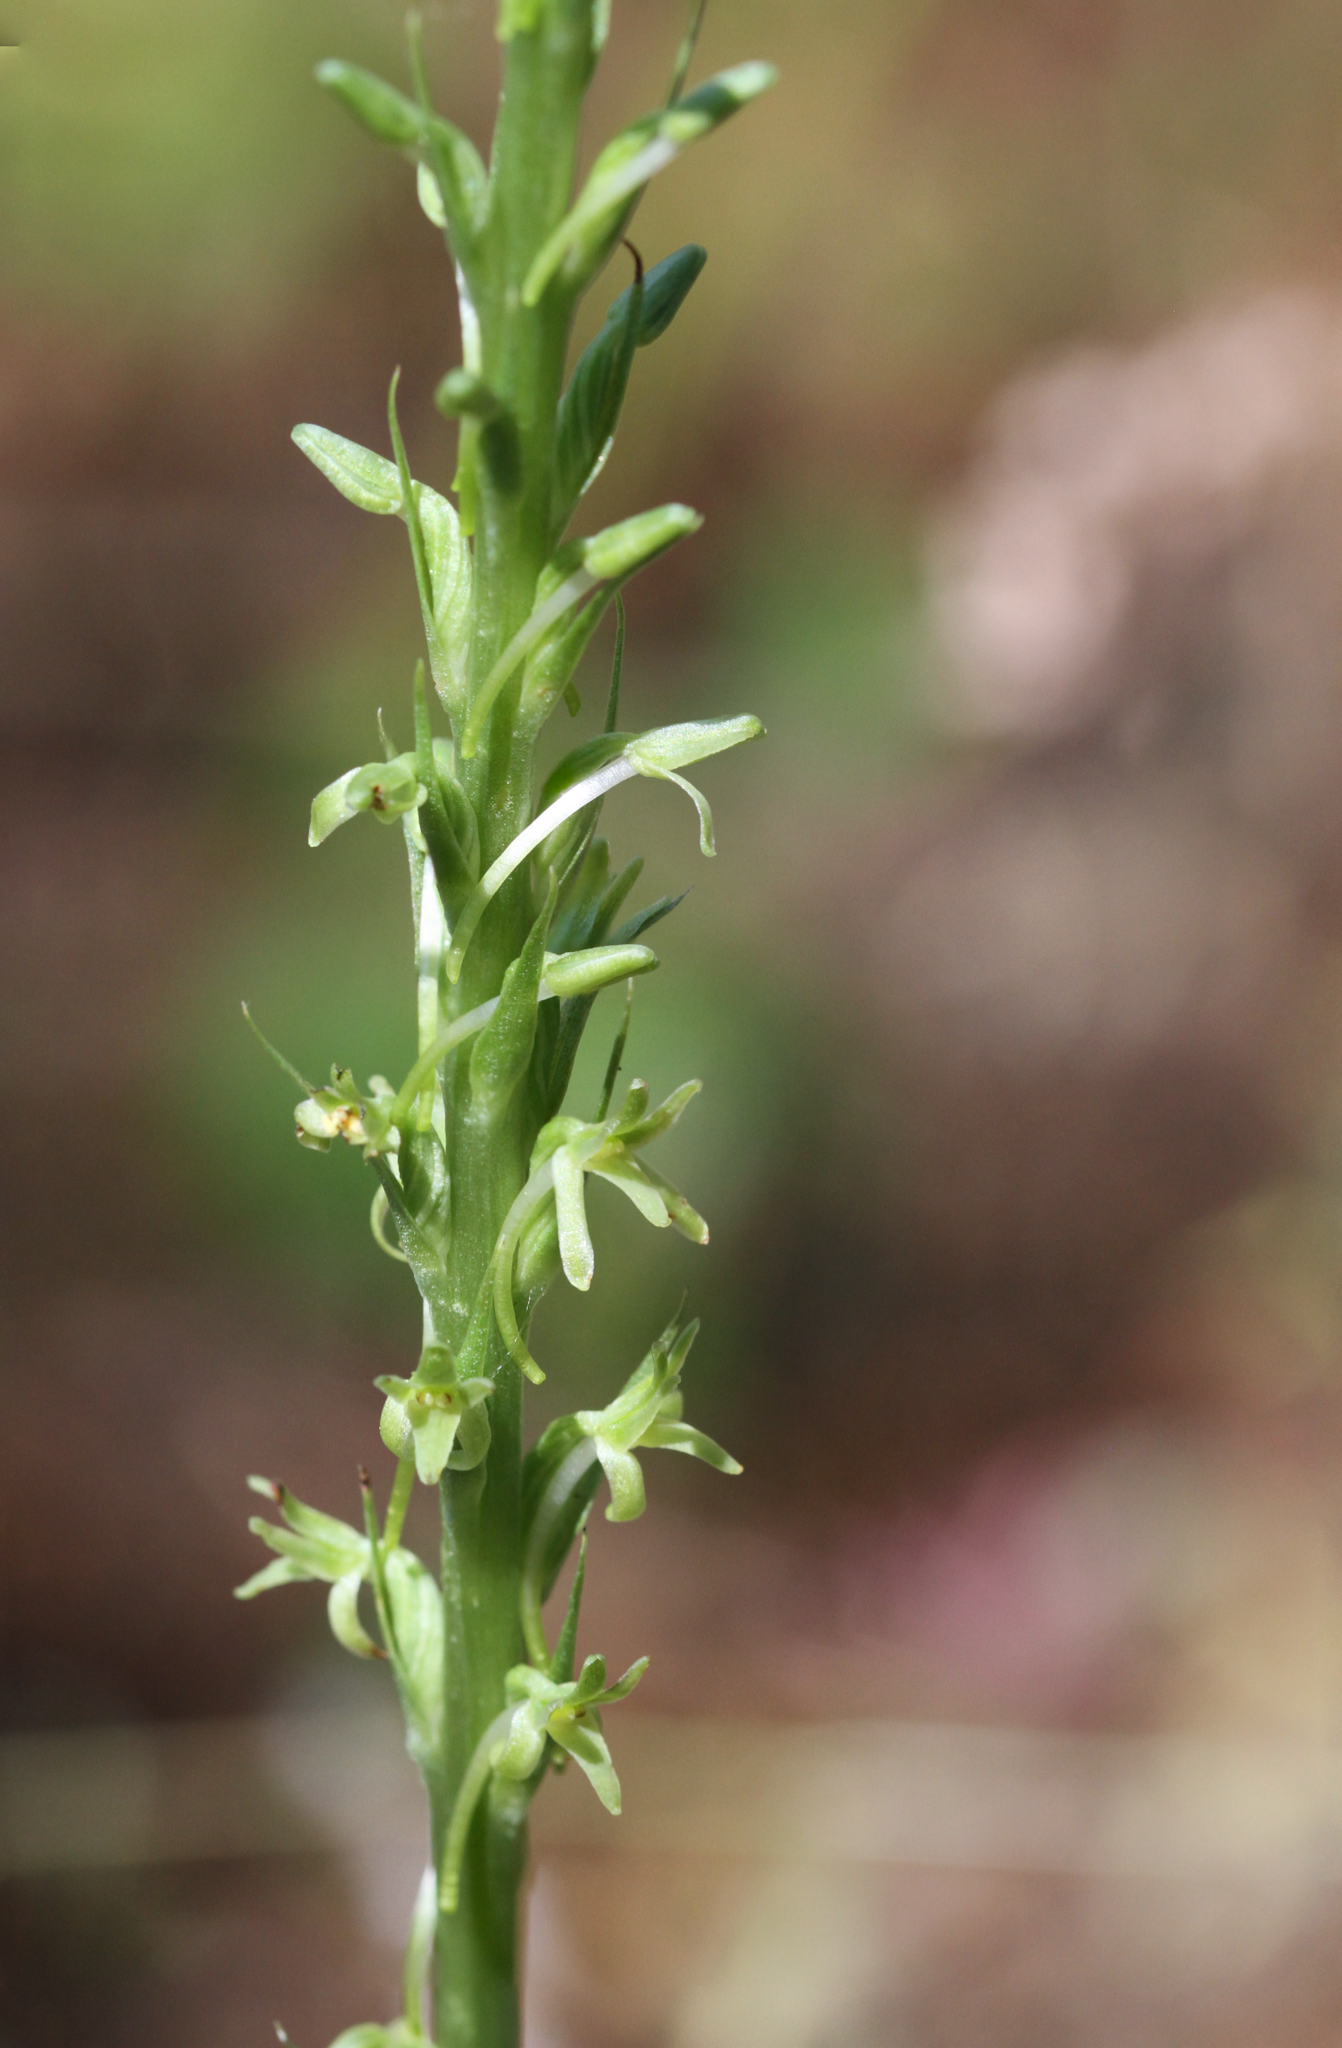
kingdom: Plantae
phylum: Tracheophyta
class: Liliopsida
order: Asparagales
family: Orchidaceae
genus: Platanthera
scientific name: Platanthera elongata
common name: Dense-flowered rein orchid
